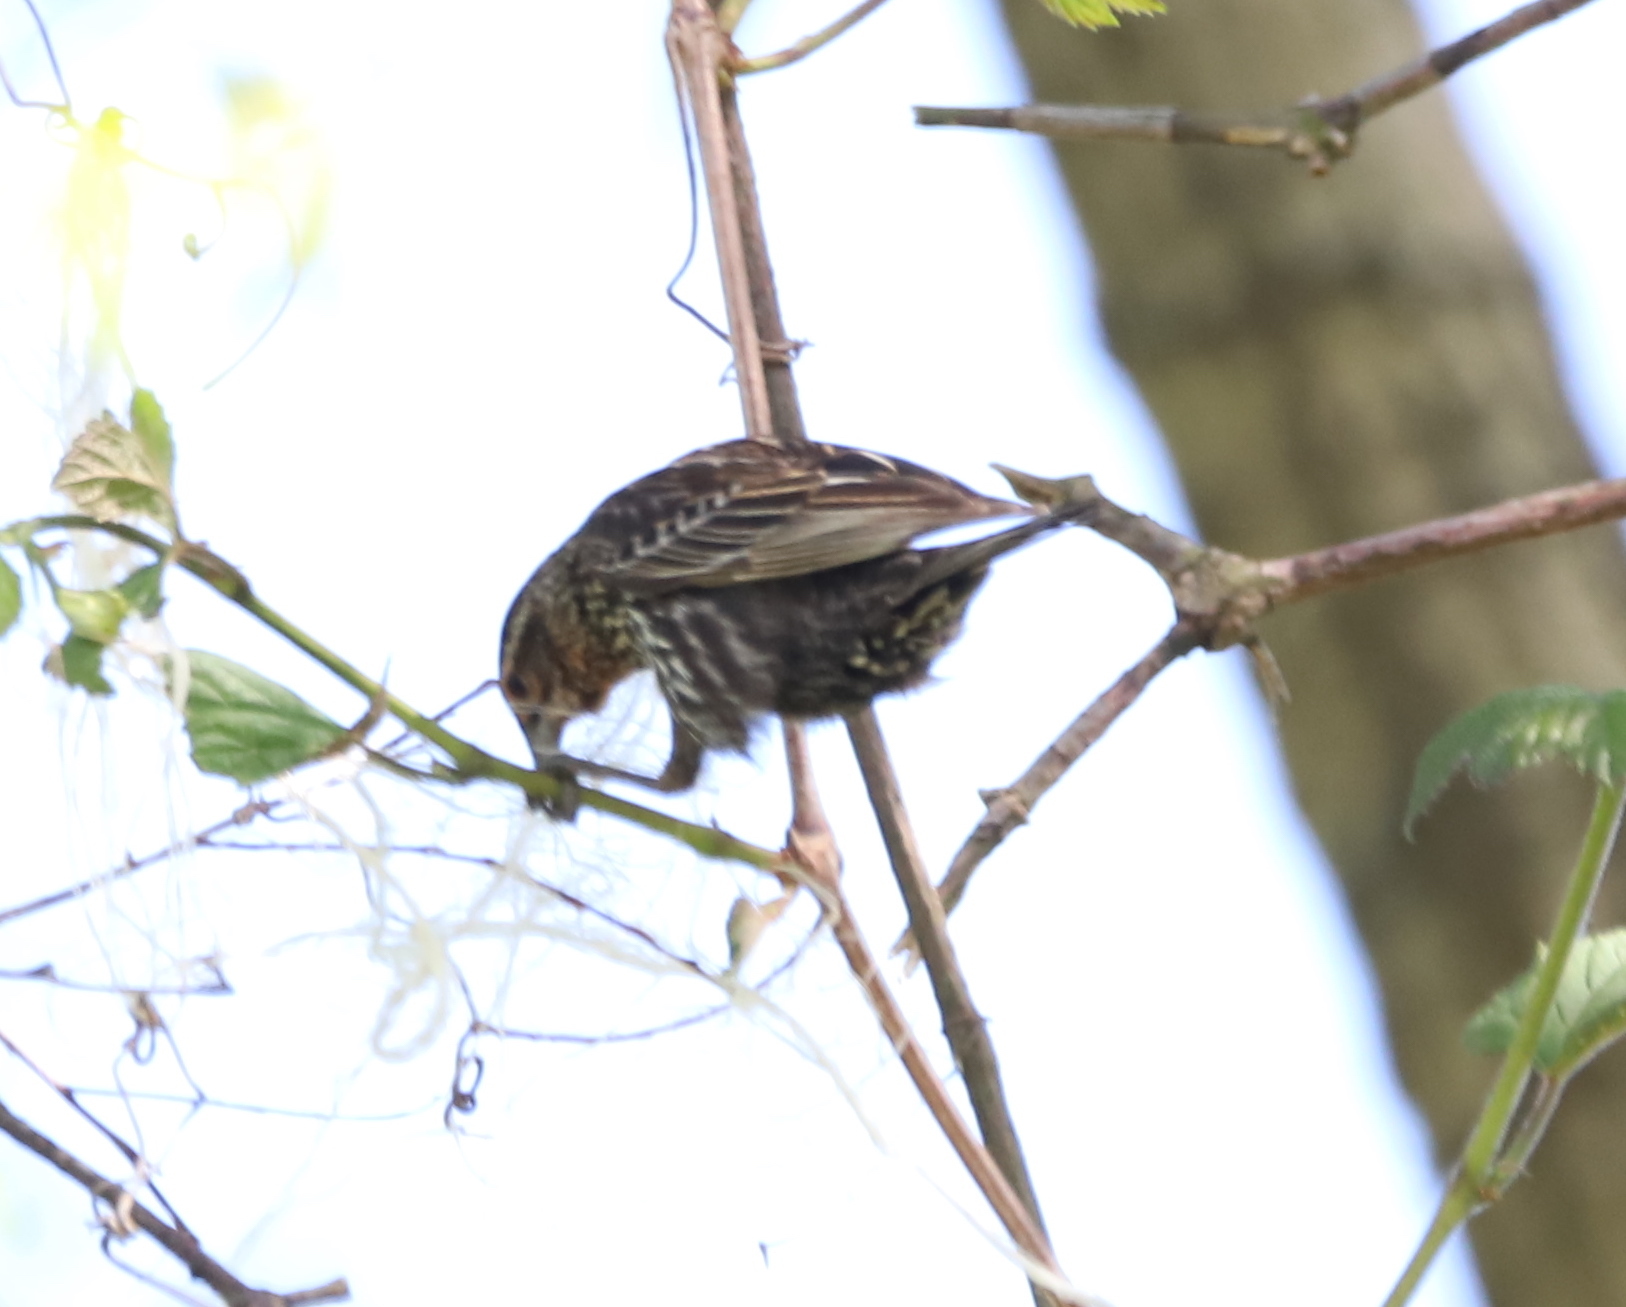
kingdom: Animalia
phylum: Chordata
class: Aves
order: Passeriformes
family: Icteridae
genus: Agelaius
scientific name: Agelaius phoeniceus
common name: Red-winged blackbird
